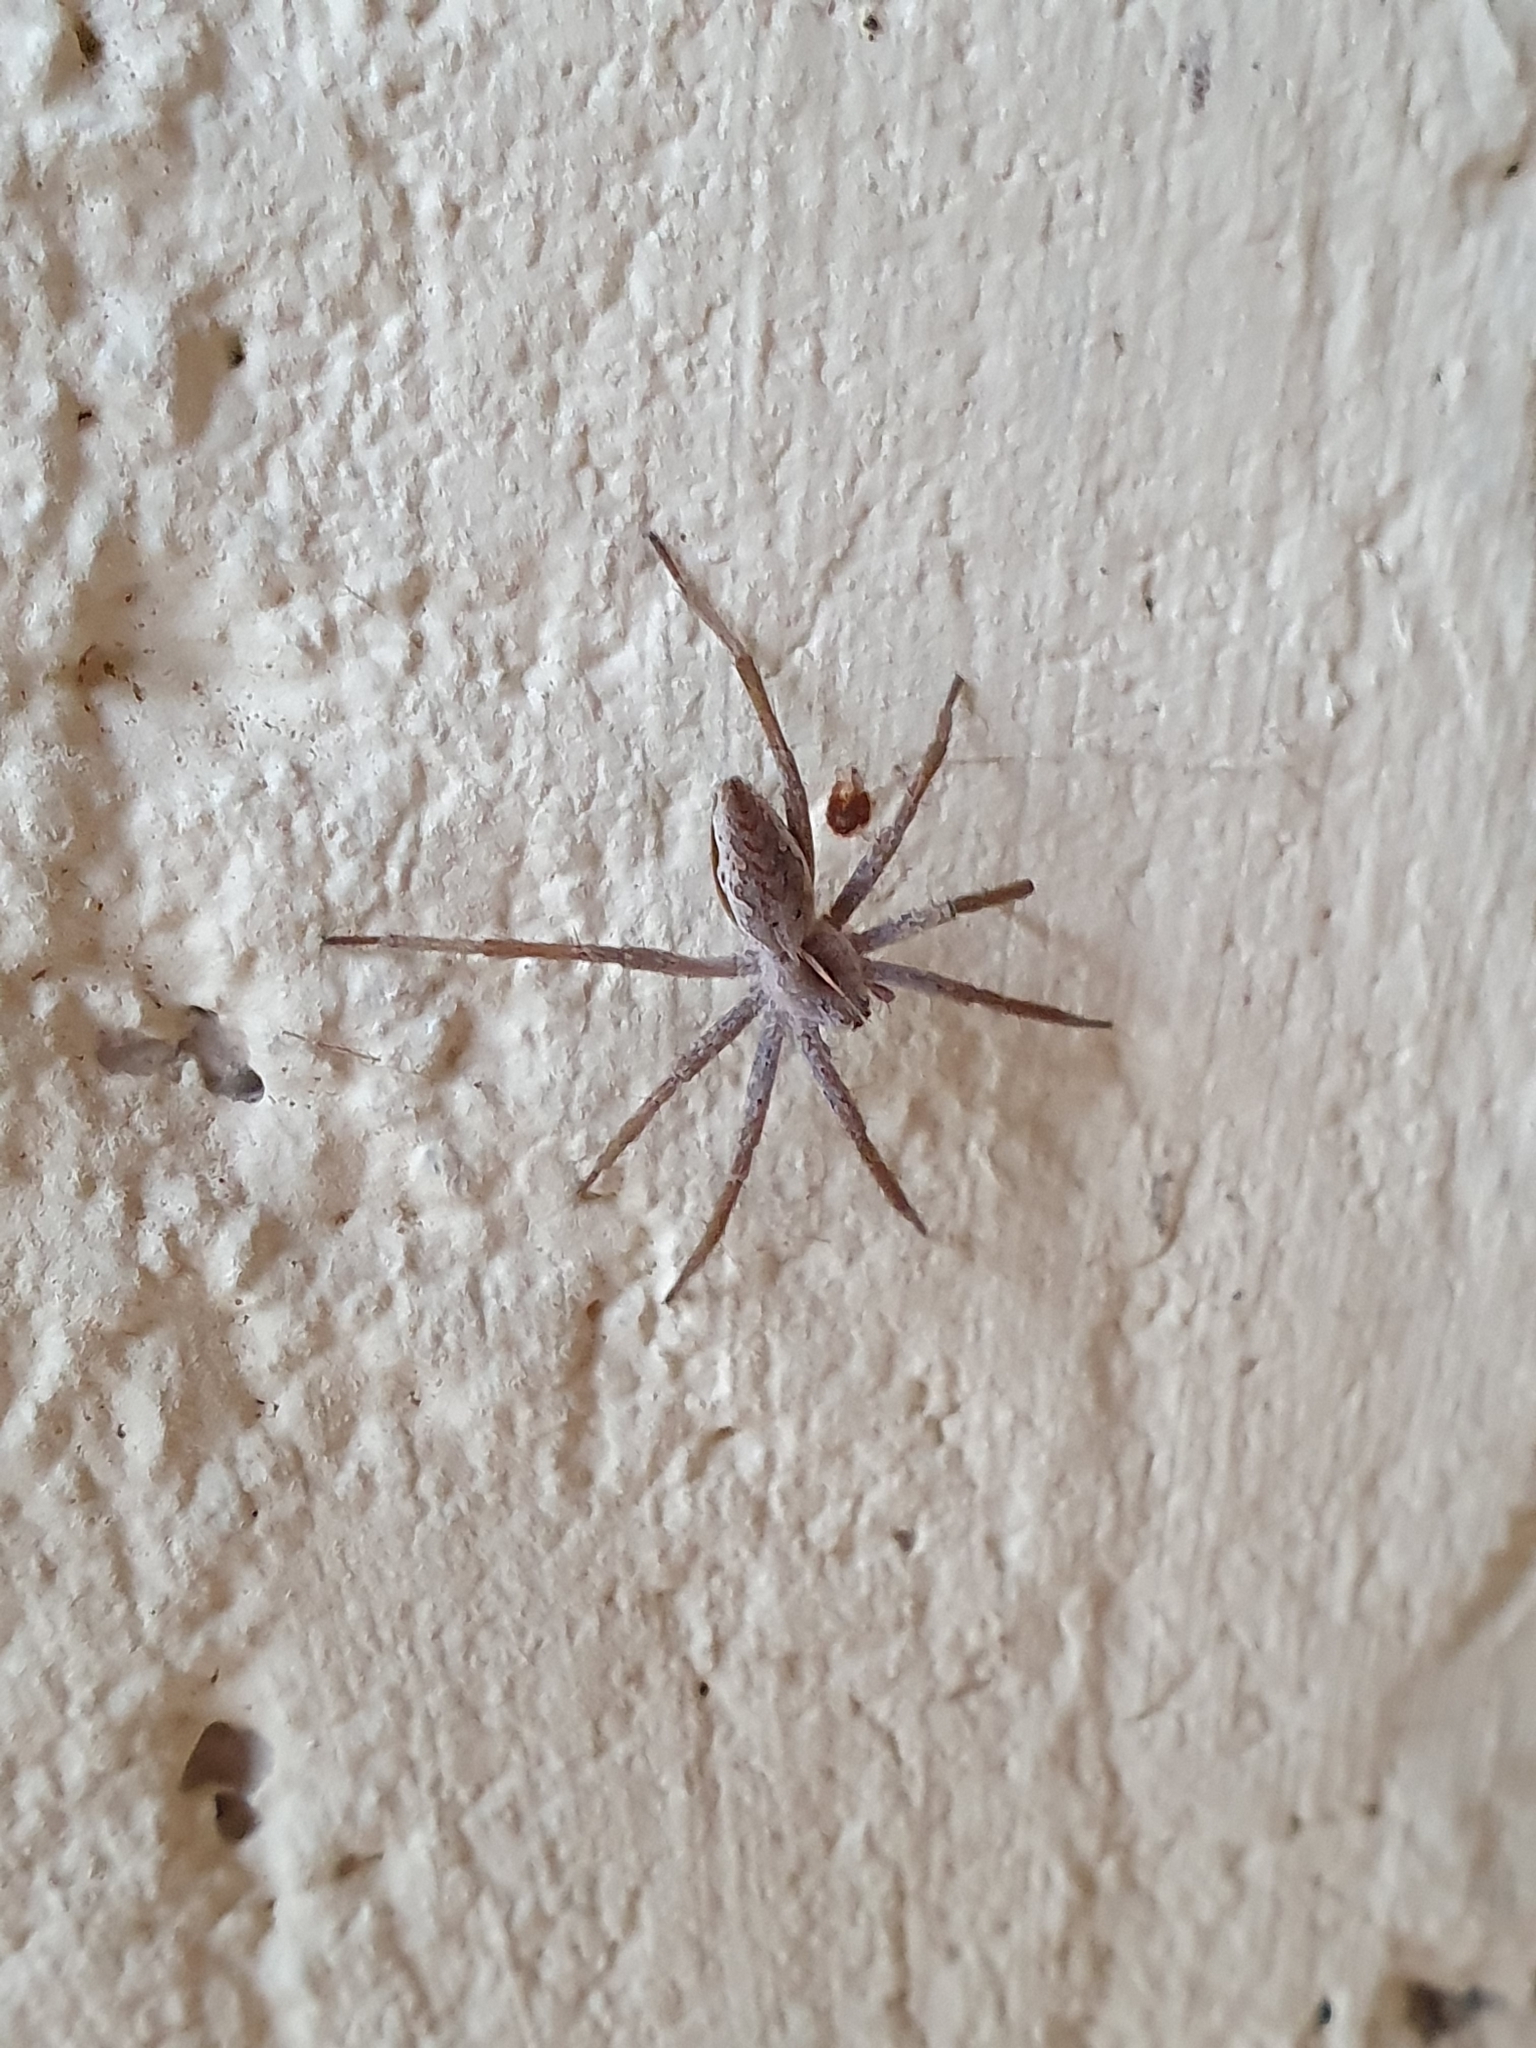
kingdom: Animalia
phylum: Arthropoda
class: Arachnida
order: Araneae
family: Pisauridae
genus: Pisaura
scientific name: Pisaura mirabilis
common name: Tent spider
